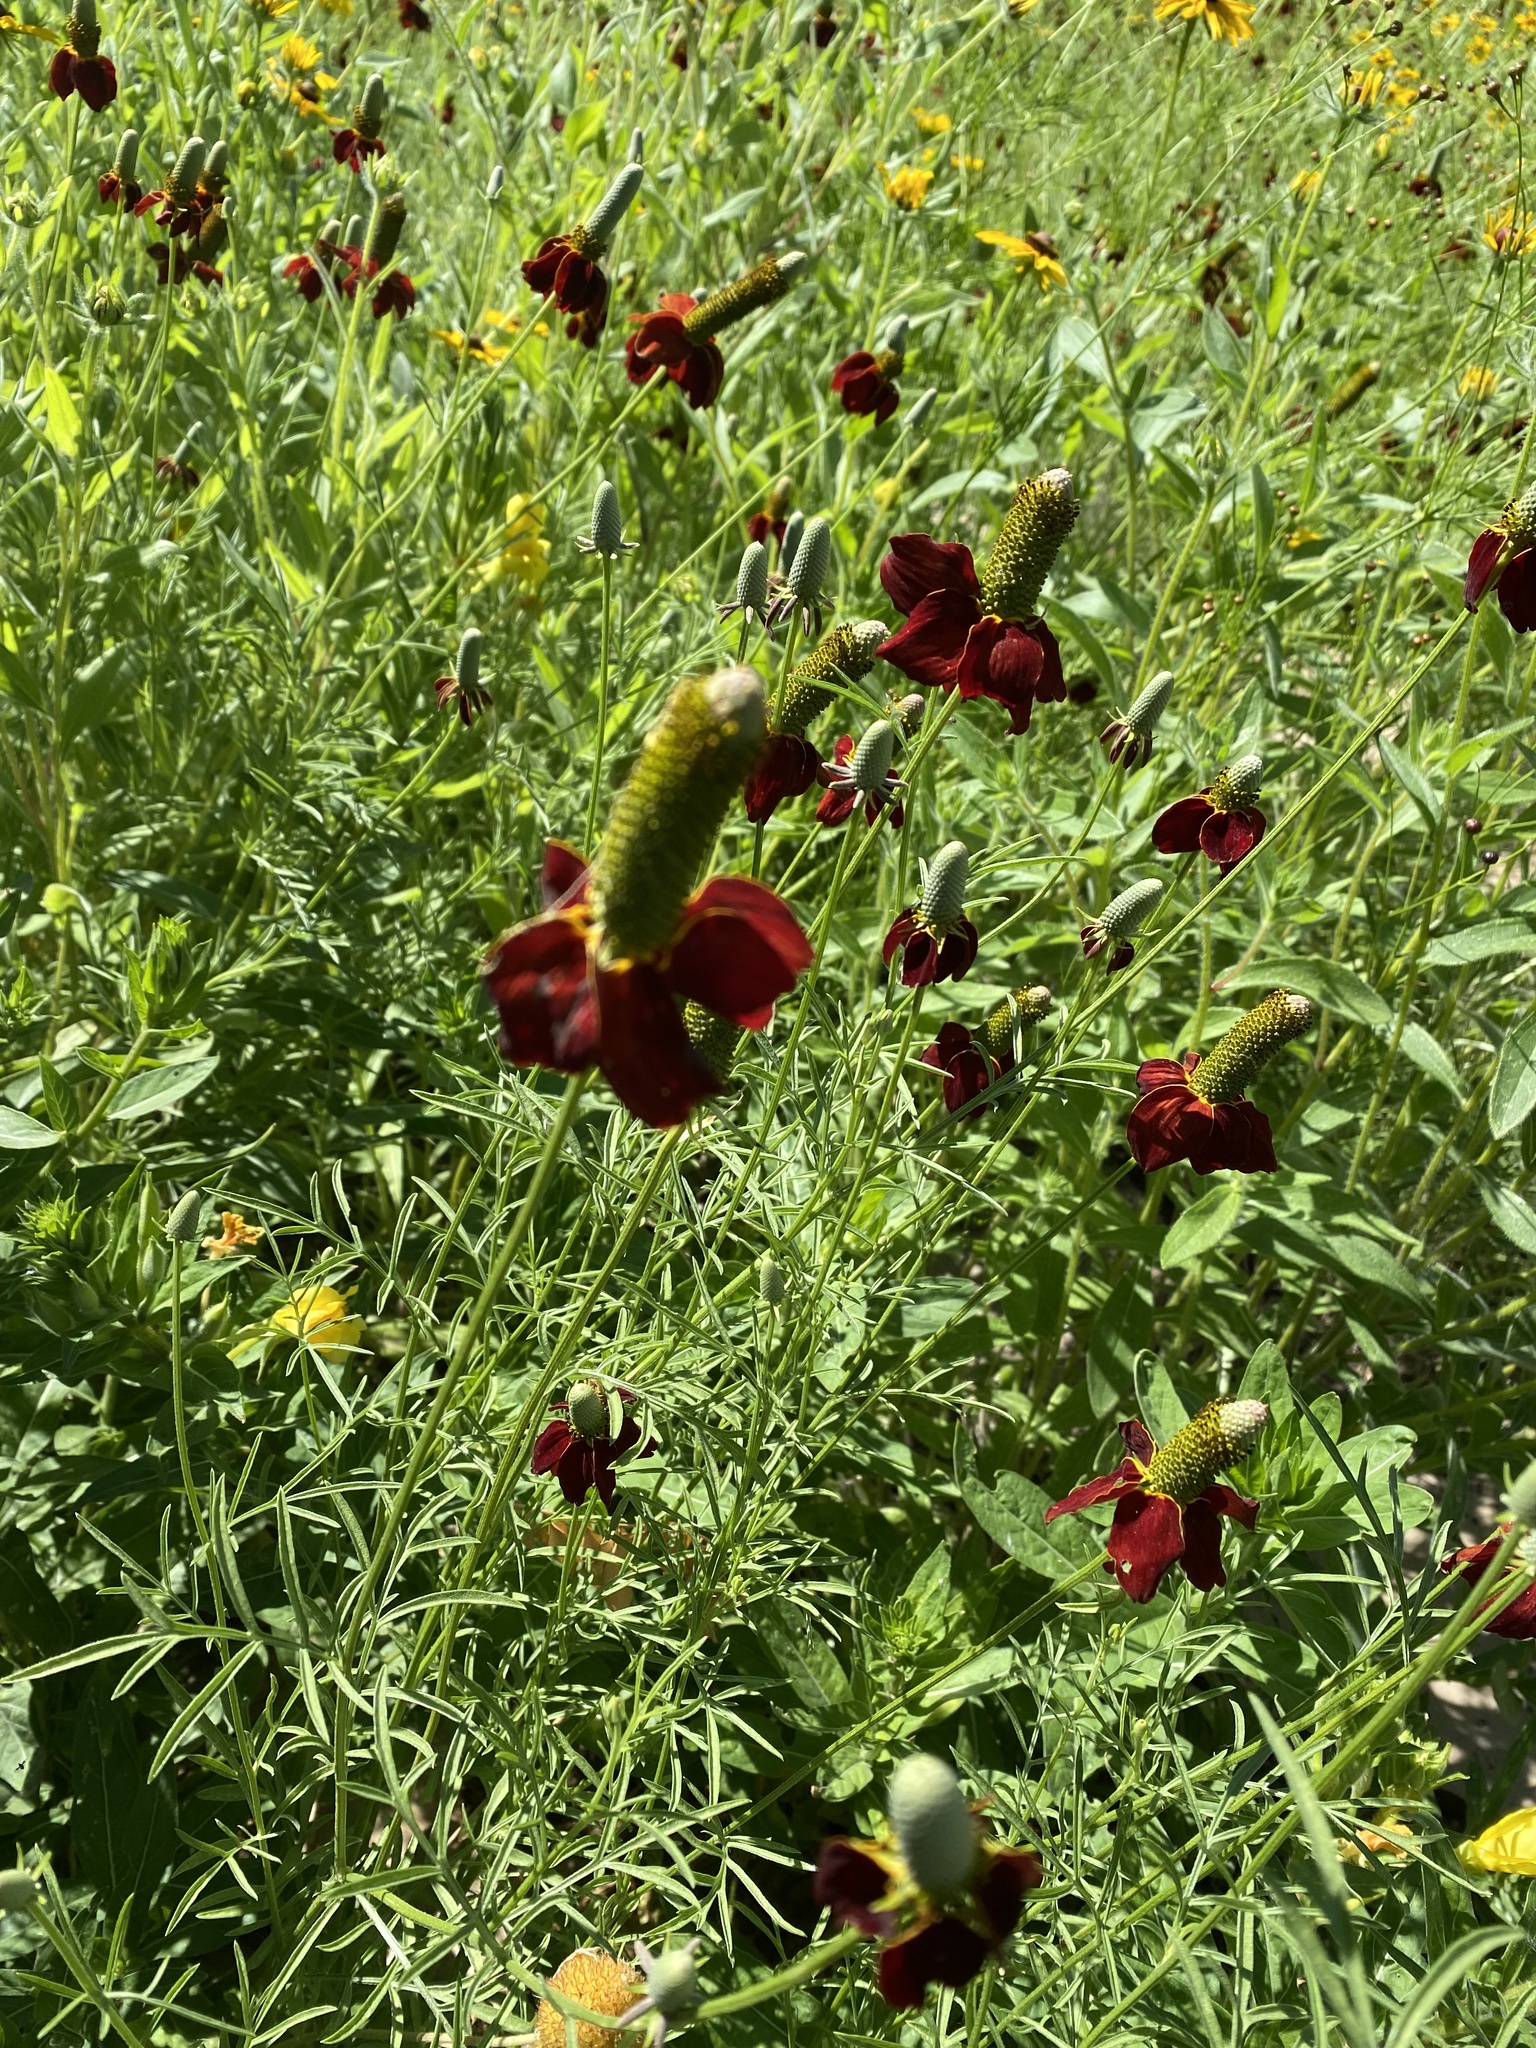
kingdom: Plantae
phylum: Tracheophyta
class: Magnoliopsida
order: Asterales
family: Asteraceae
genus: Ratibida
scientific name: Ratibida columnifera
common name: Prairie coneflower
